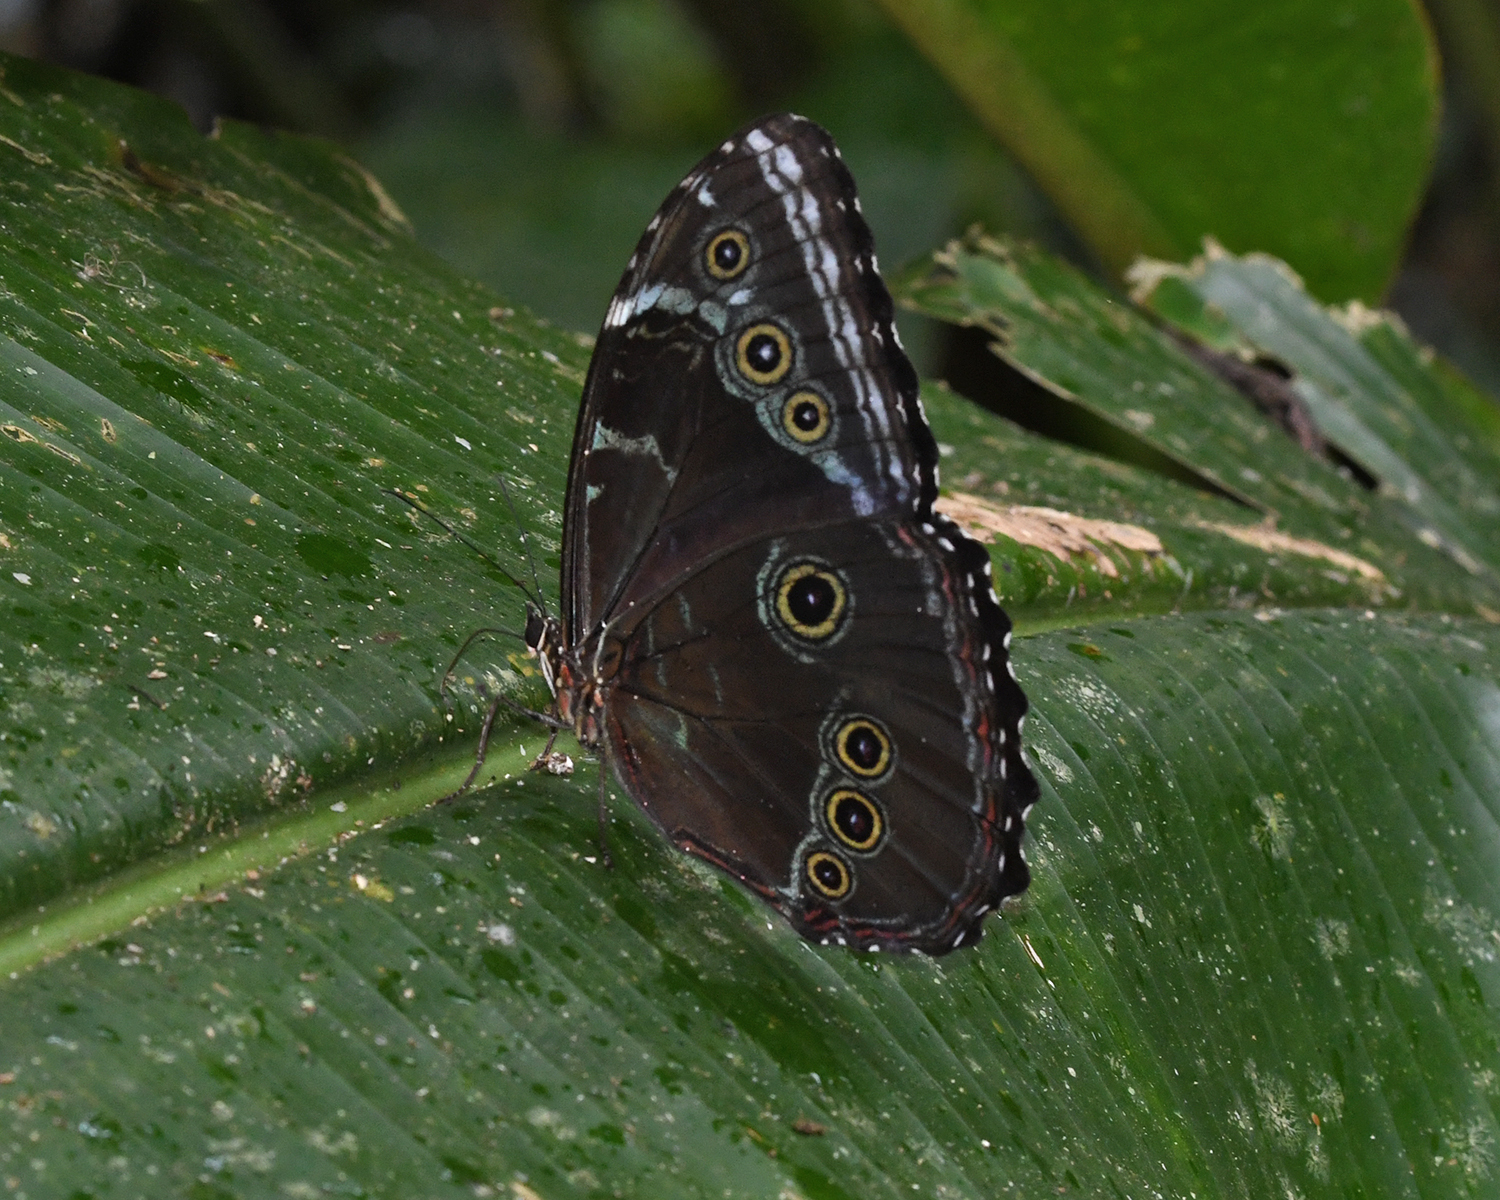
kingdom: Animalia
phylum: Arthropoda
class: Insecta
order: Lepidoptera
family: Nymphalidae
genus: Morpho
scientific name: Morpho helenor
